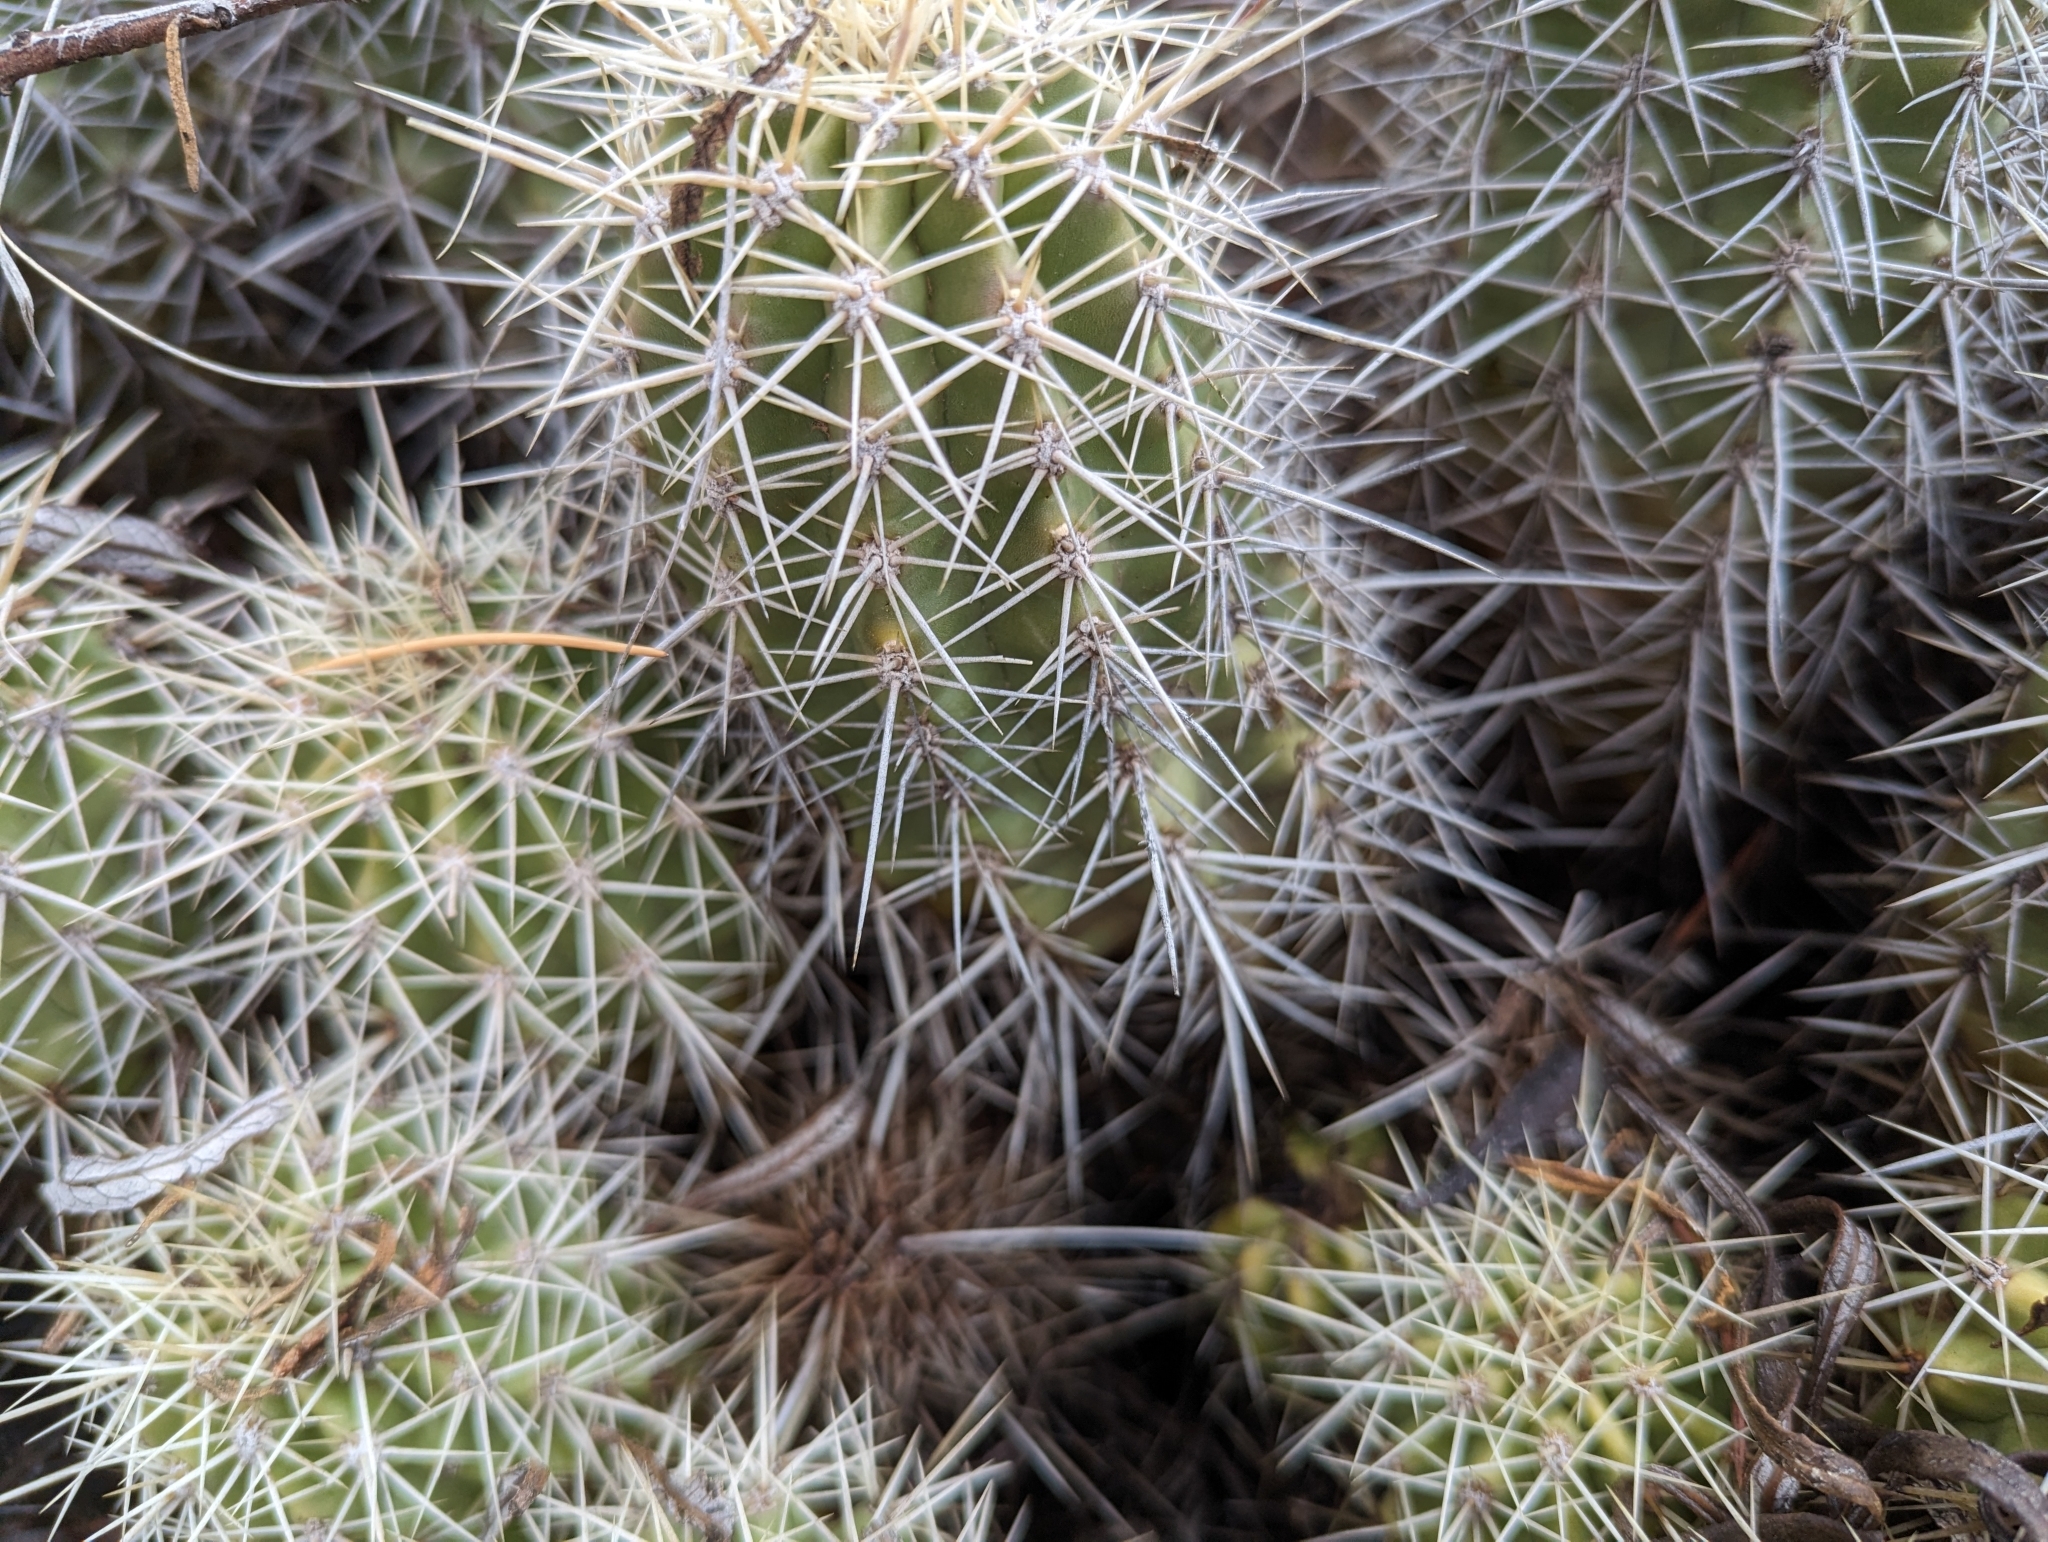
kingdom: Plantae
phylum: Tracheophyta
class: Magnoliopsida
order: Caryophyllales
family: Cactaceae
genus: Echinocereus
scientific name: Echinocereus bakeri
